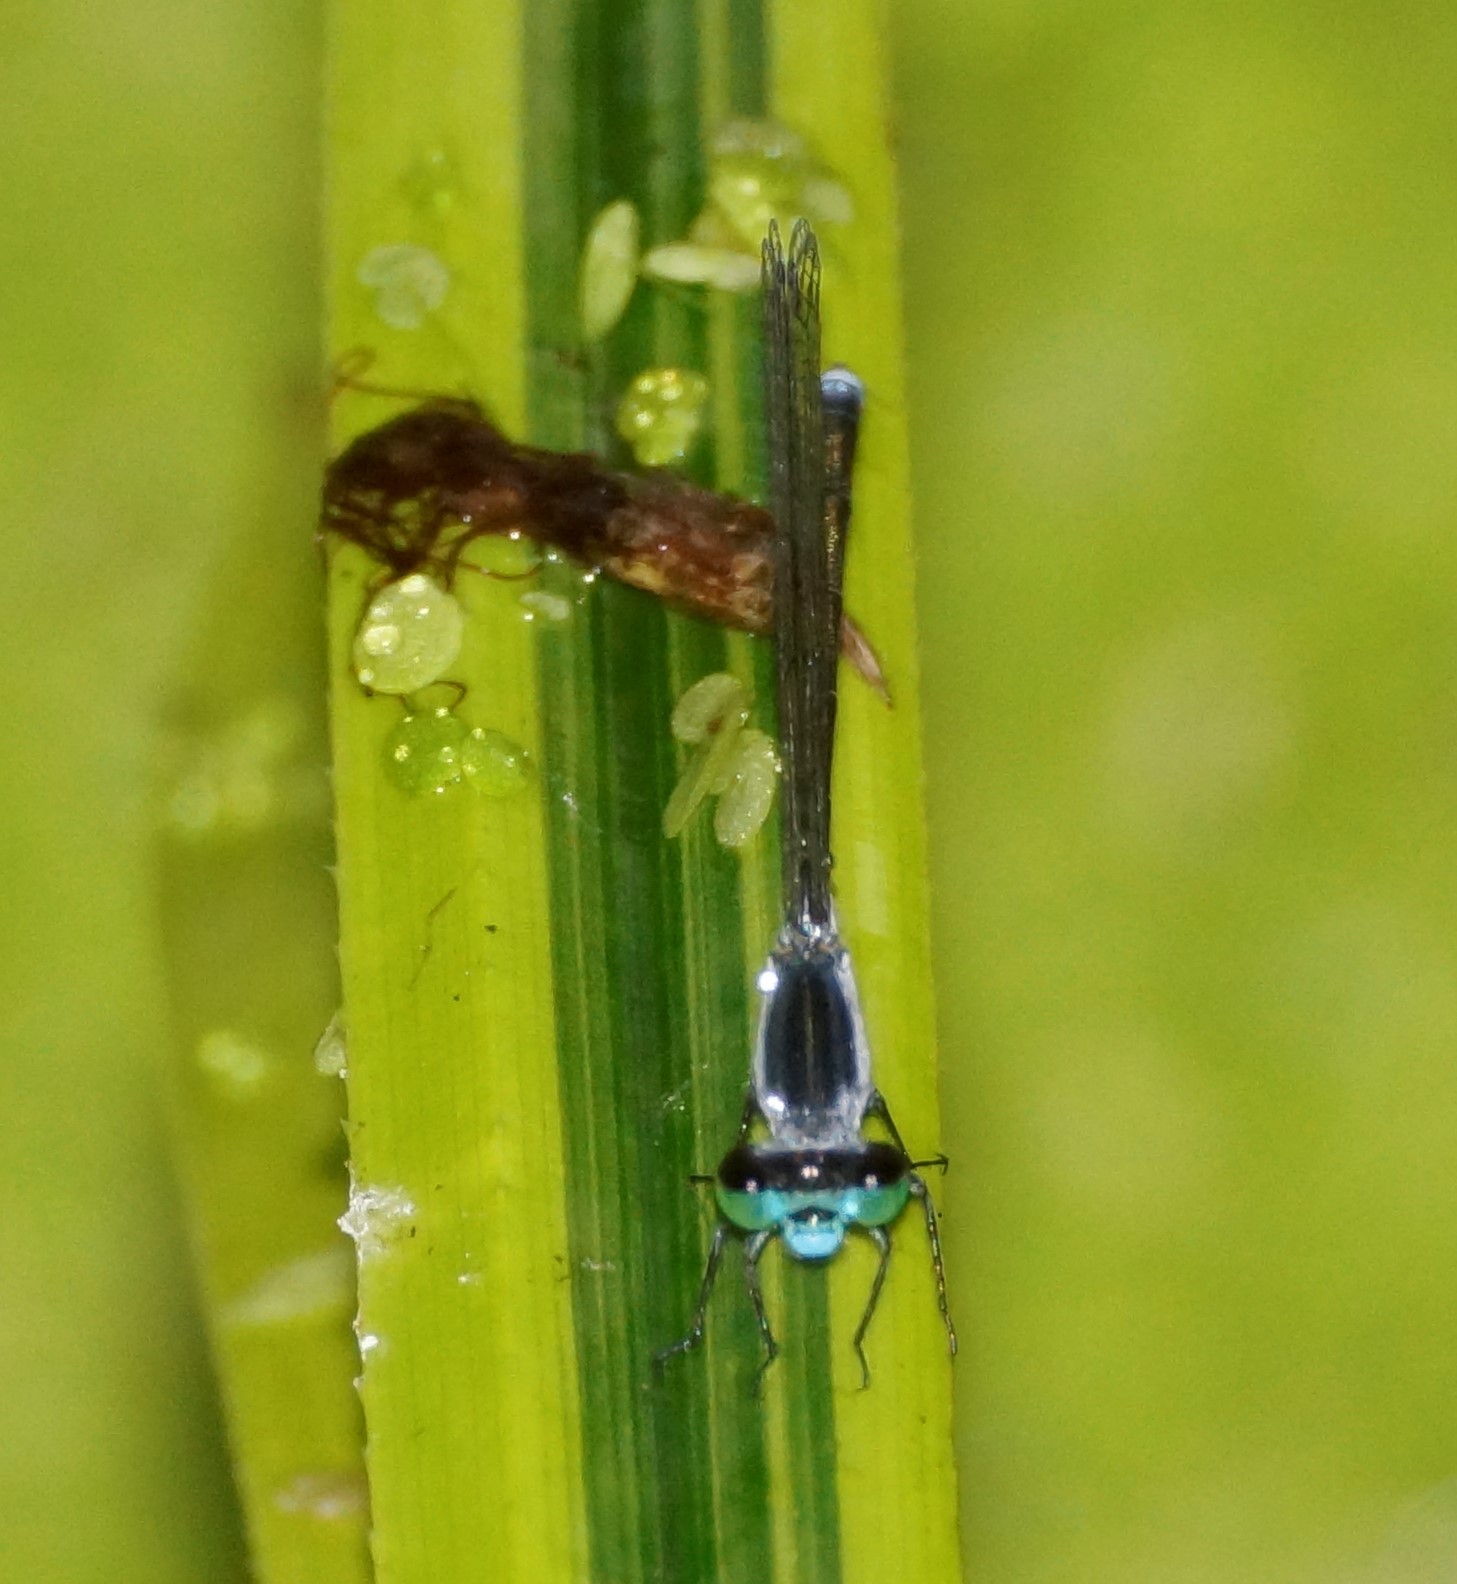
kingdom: Animalia
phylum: Arthropoda
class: Insecta
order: Odonata
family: Coenagrionidae
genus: Ischnura
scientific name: Ischnura pruinescens
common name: Colourful bluetail
